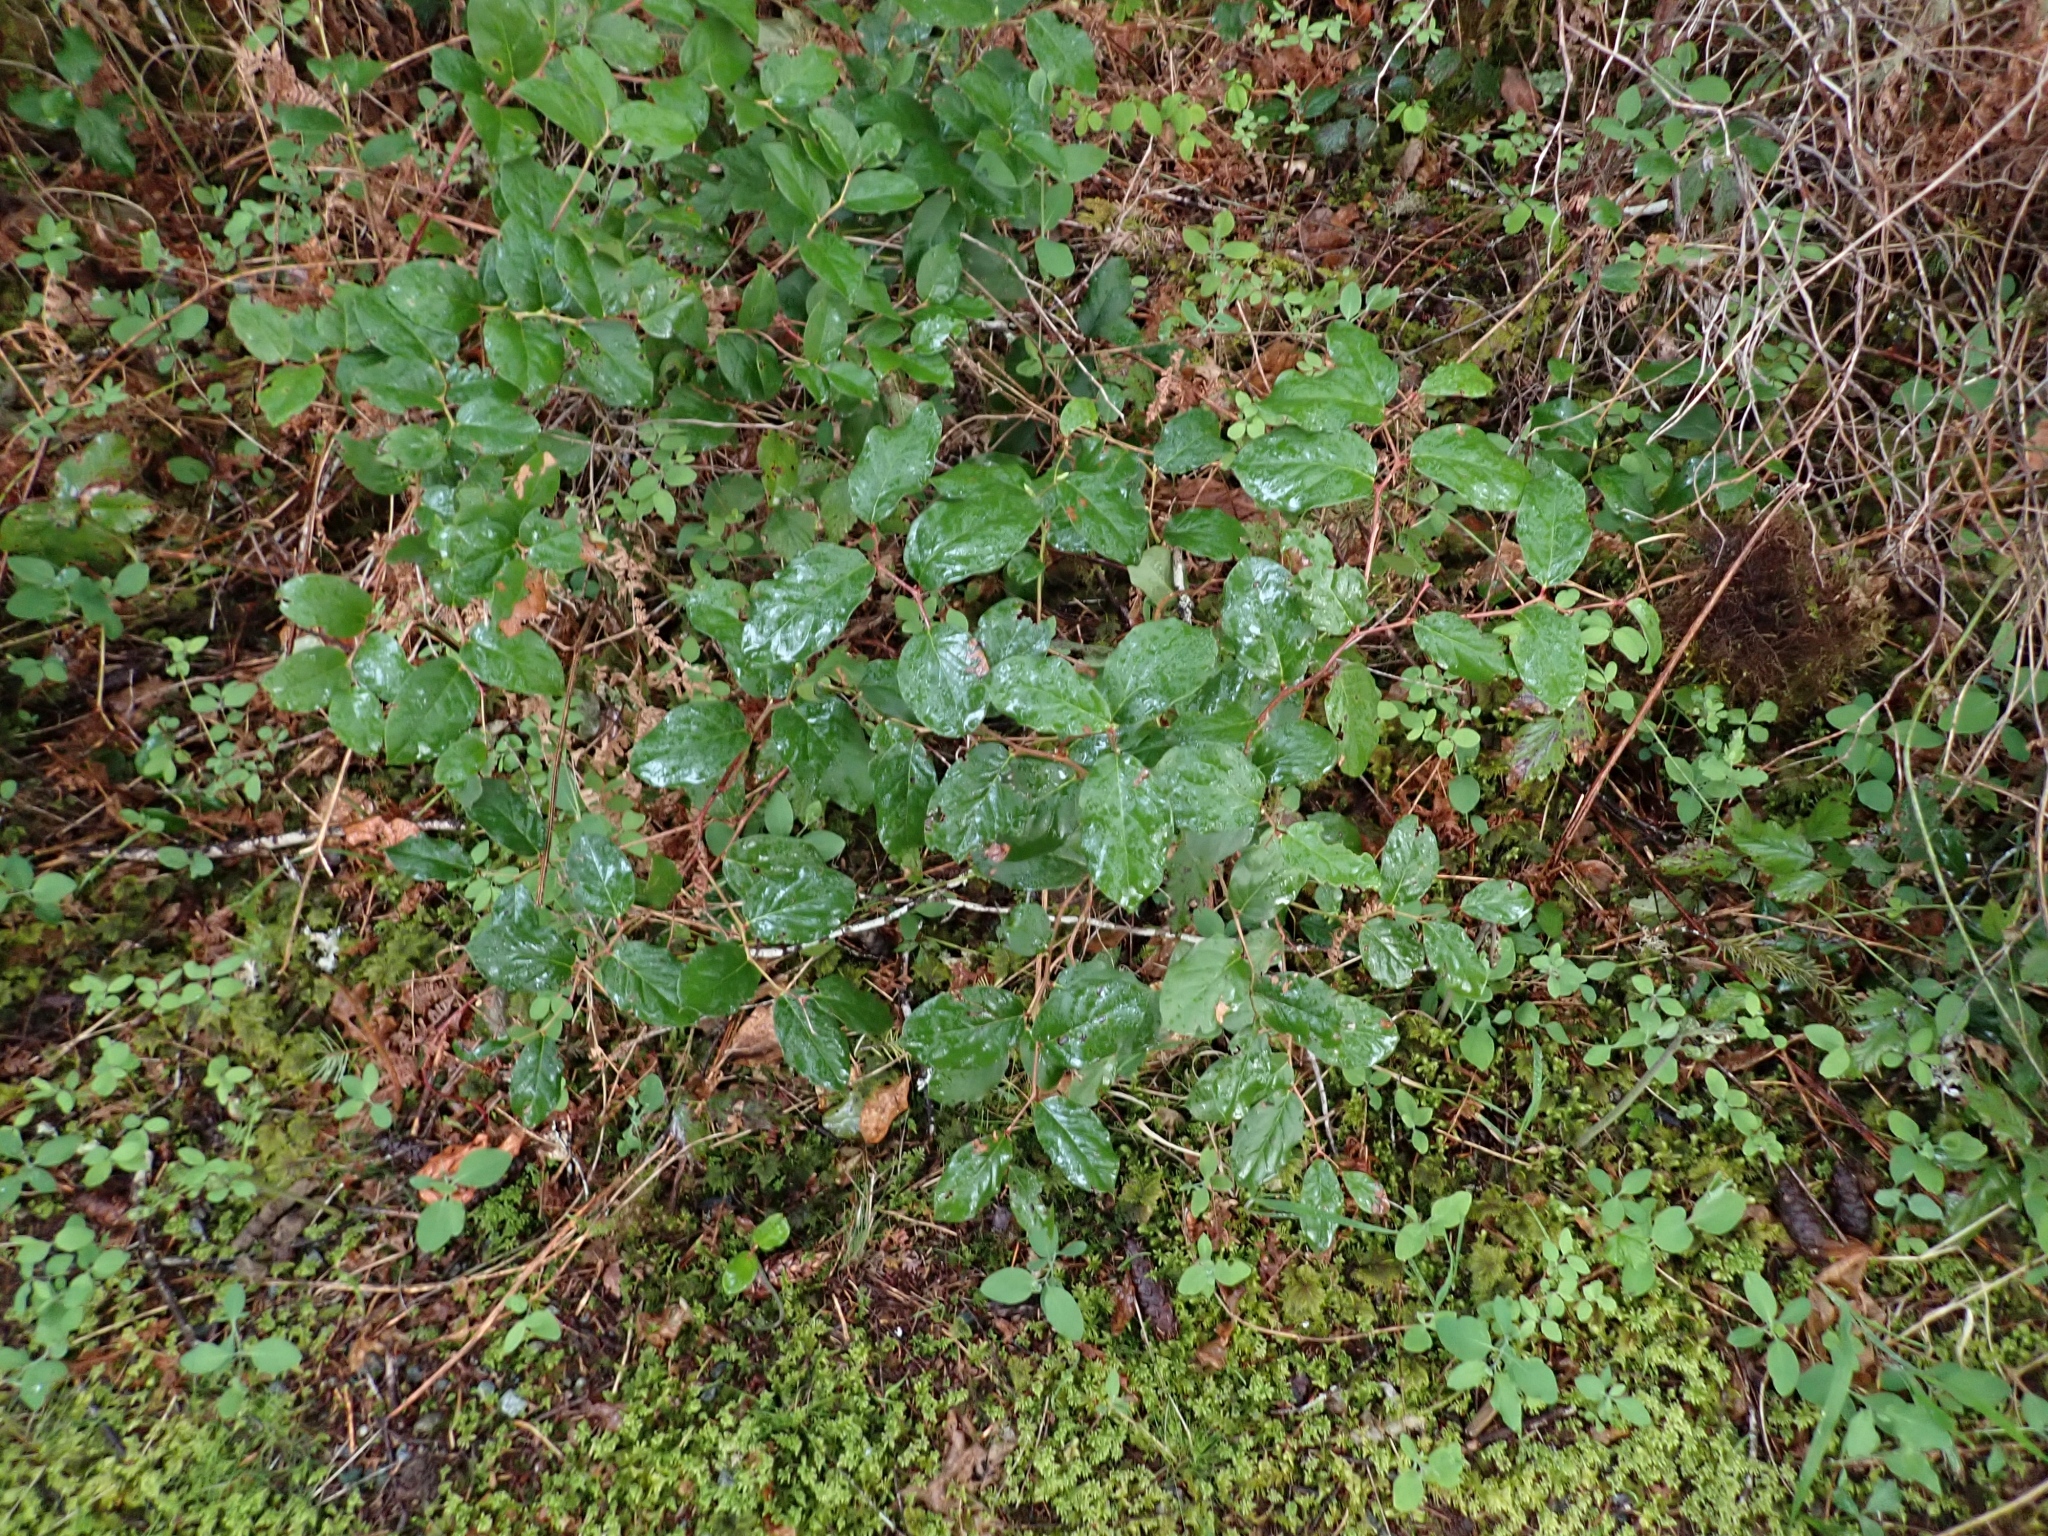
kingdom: Plantae
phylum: Tracheophyta
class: Magnoliopsida
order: Ericales
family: Ericaceae
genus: Gaultheria
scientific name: Gaultheria shallon
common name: Shallon
